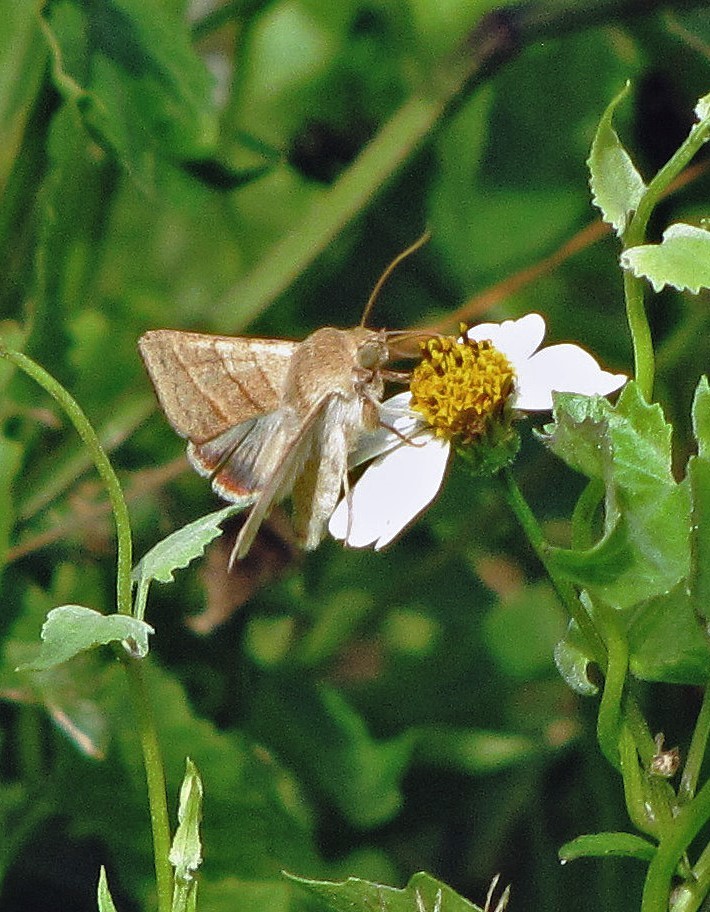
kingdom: Animalia
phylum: Arthropoda
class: Insecta
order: Lepidoptera
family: Noctuidae
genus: Chloridea
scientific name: Chloridea virescens
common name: Tobacco budworm
